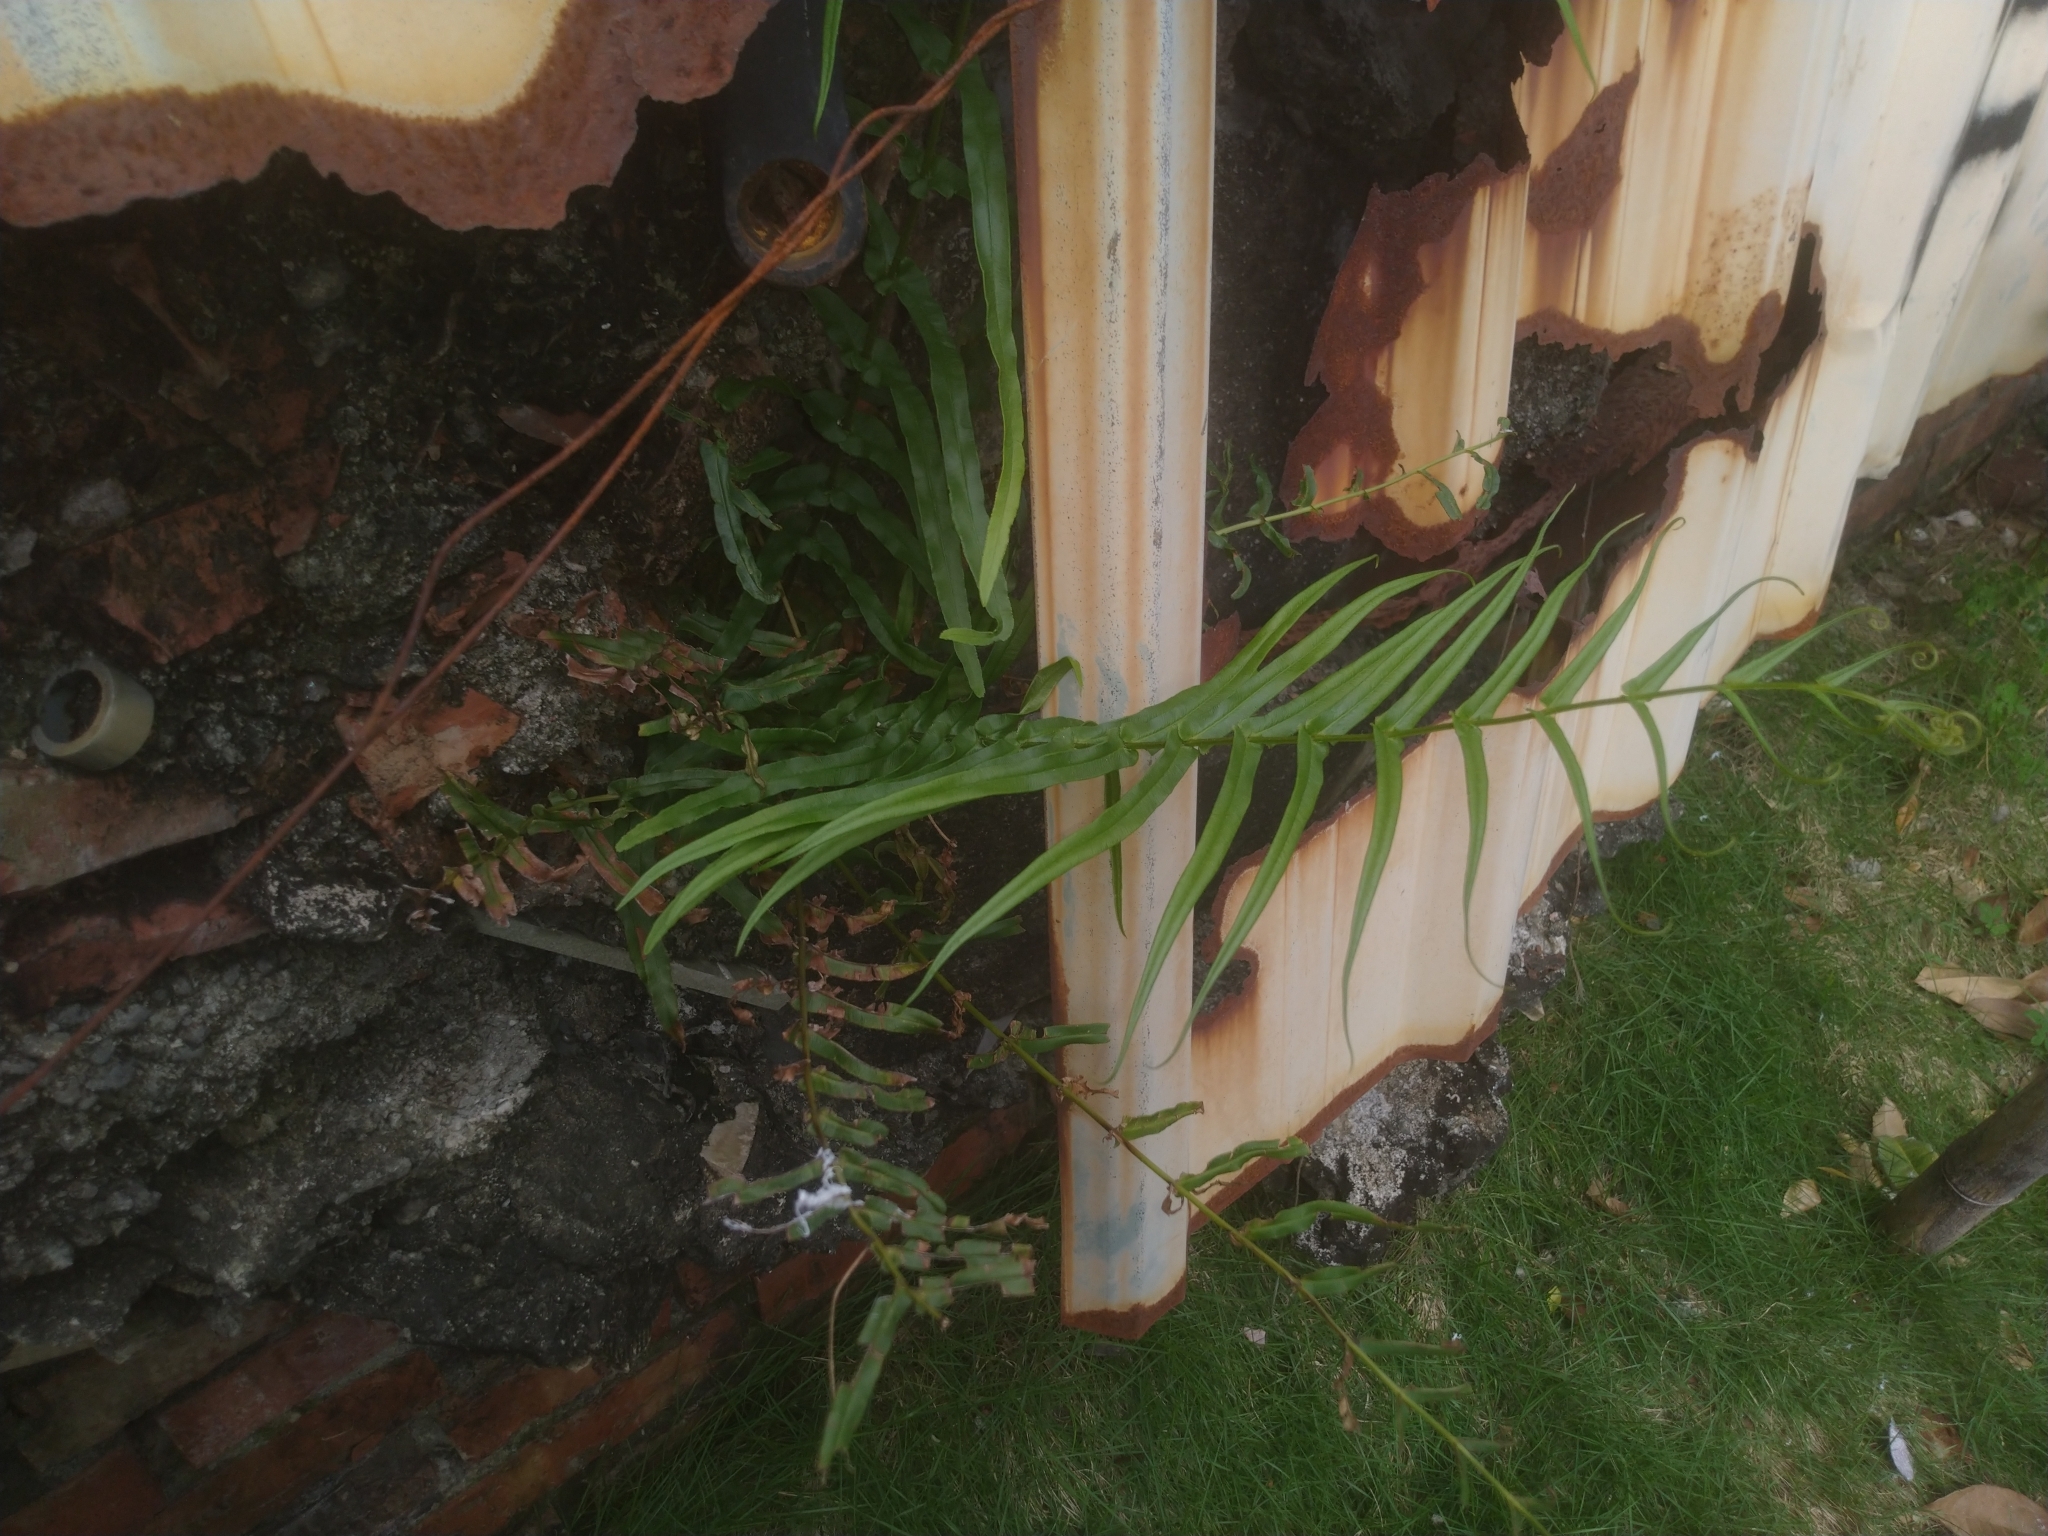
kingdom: Plantae
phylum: Tracheophyta
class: Polypodiopsida
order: Polypodiales
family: Pteridaceae
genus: Pteris
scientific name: Pteris vittata
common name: Ladder brake
